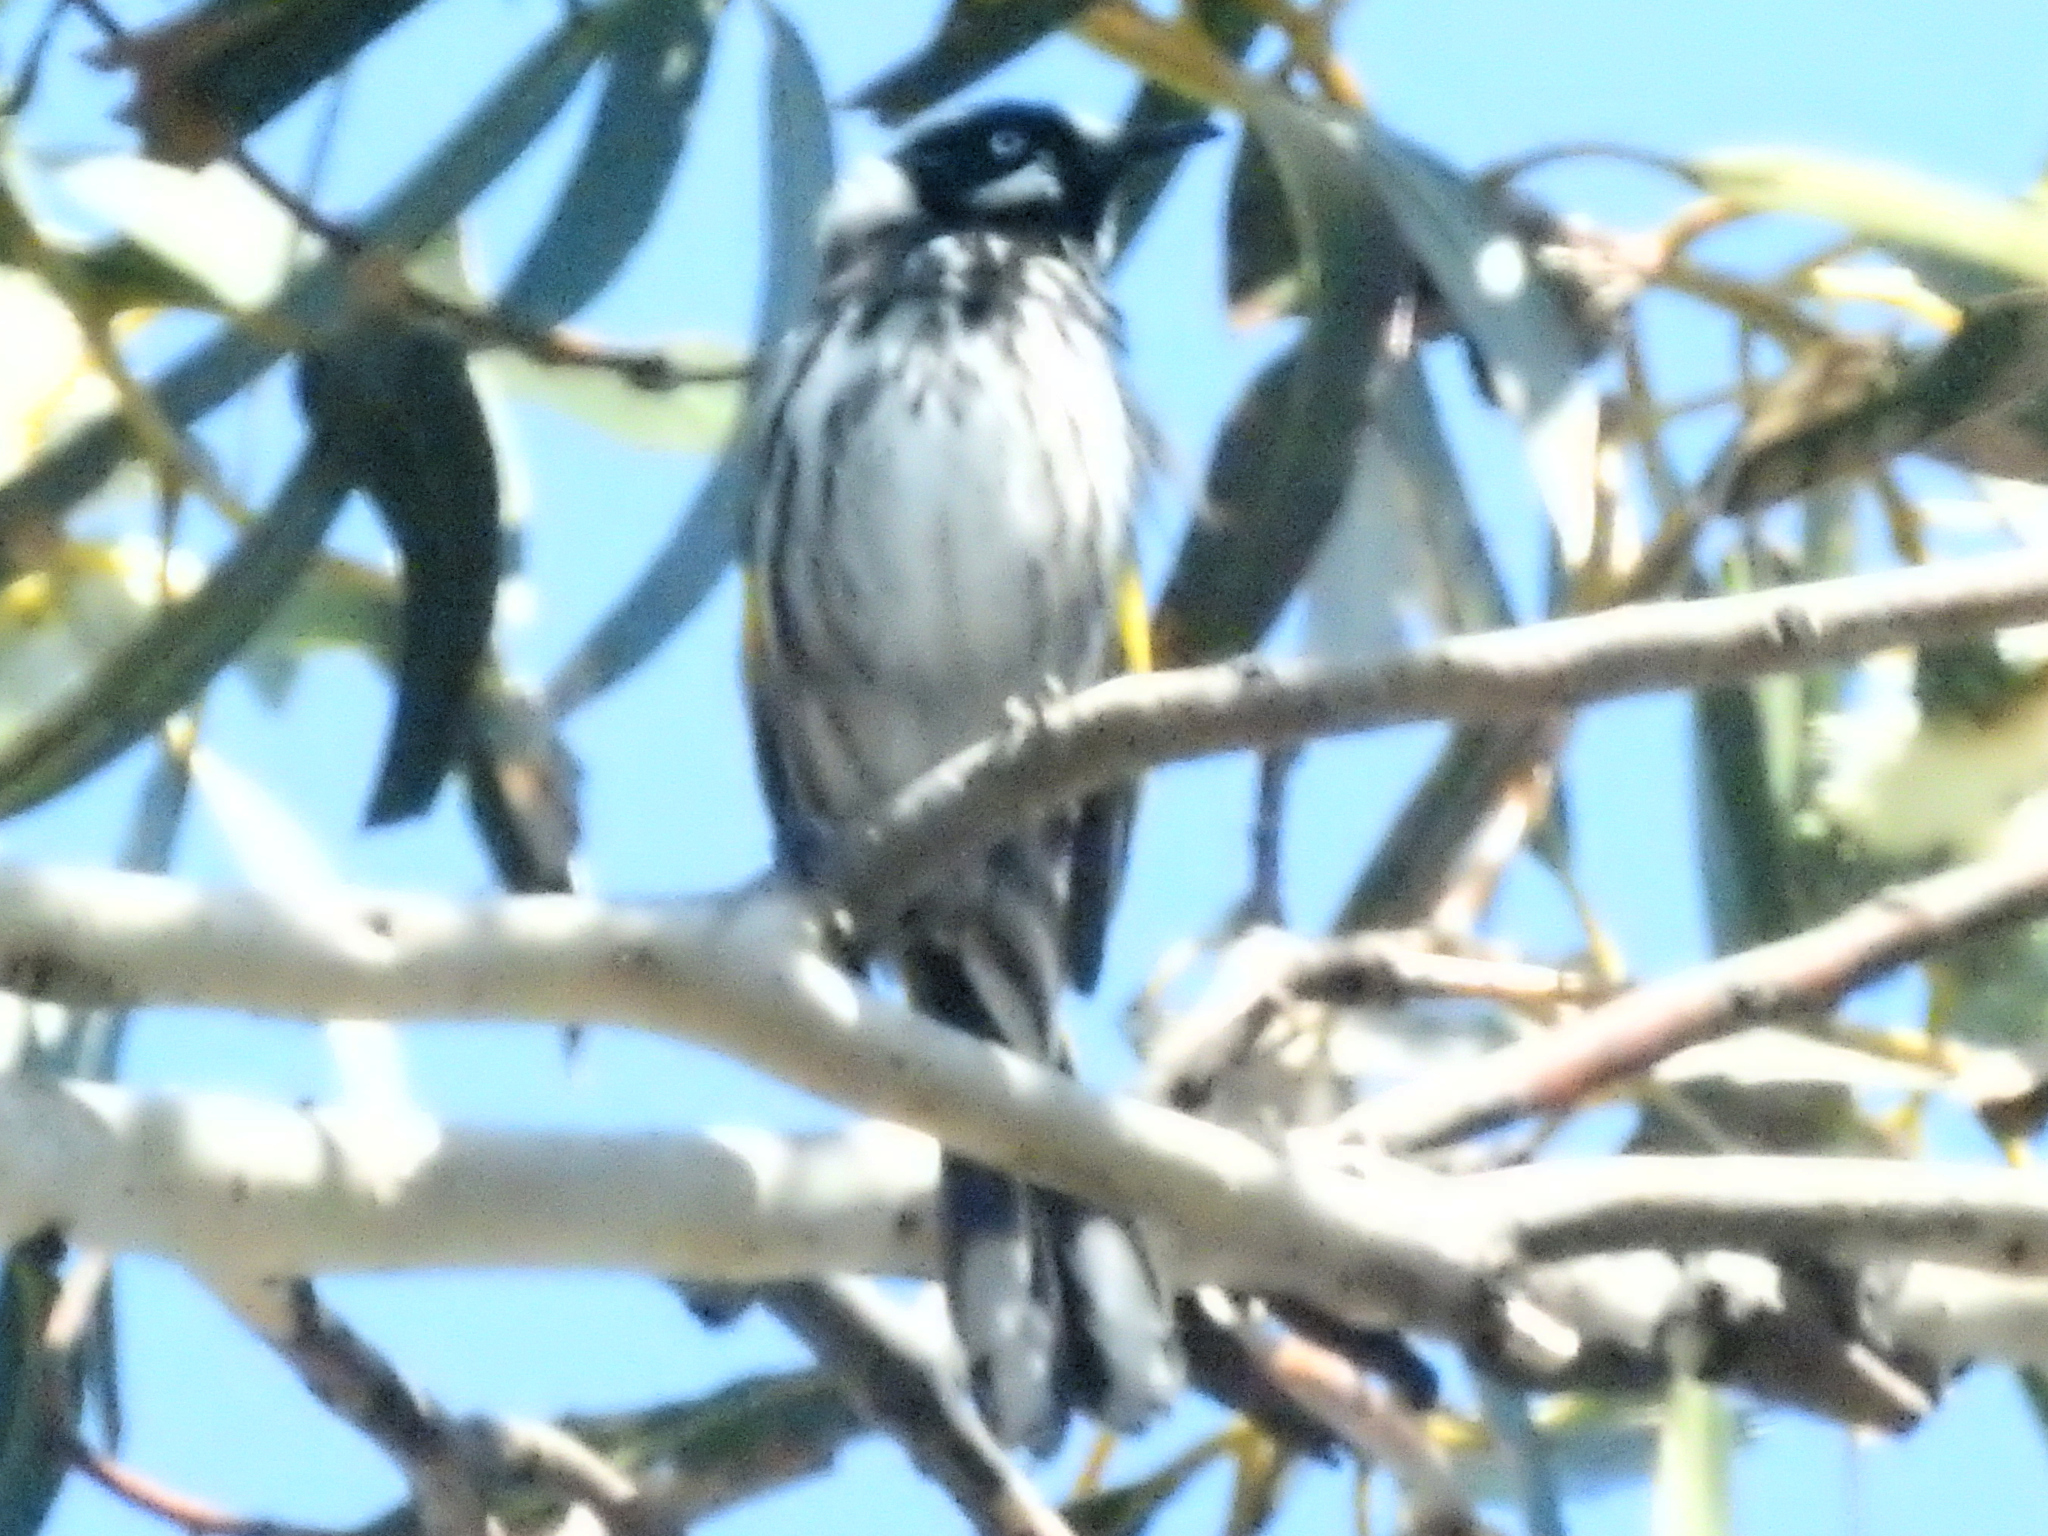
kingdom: Animalia
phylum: Chordata
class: Aves
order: Passeriformes
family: Meliphagidae
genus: Phylidonyris
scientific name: Phylidonyris novaehollandiae
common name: New holland honeyeater
